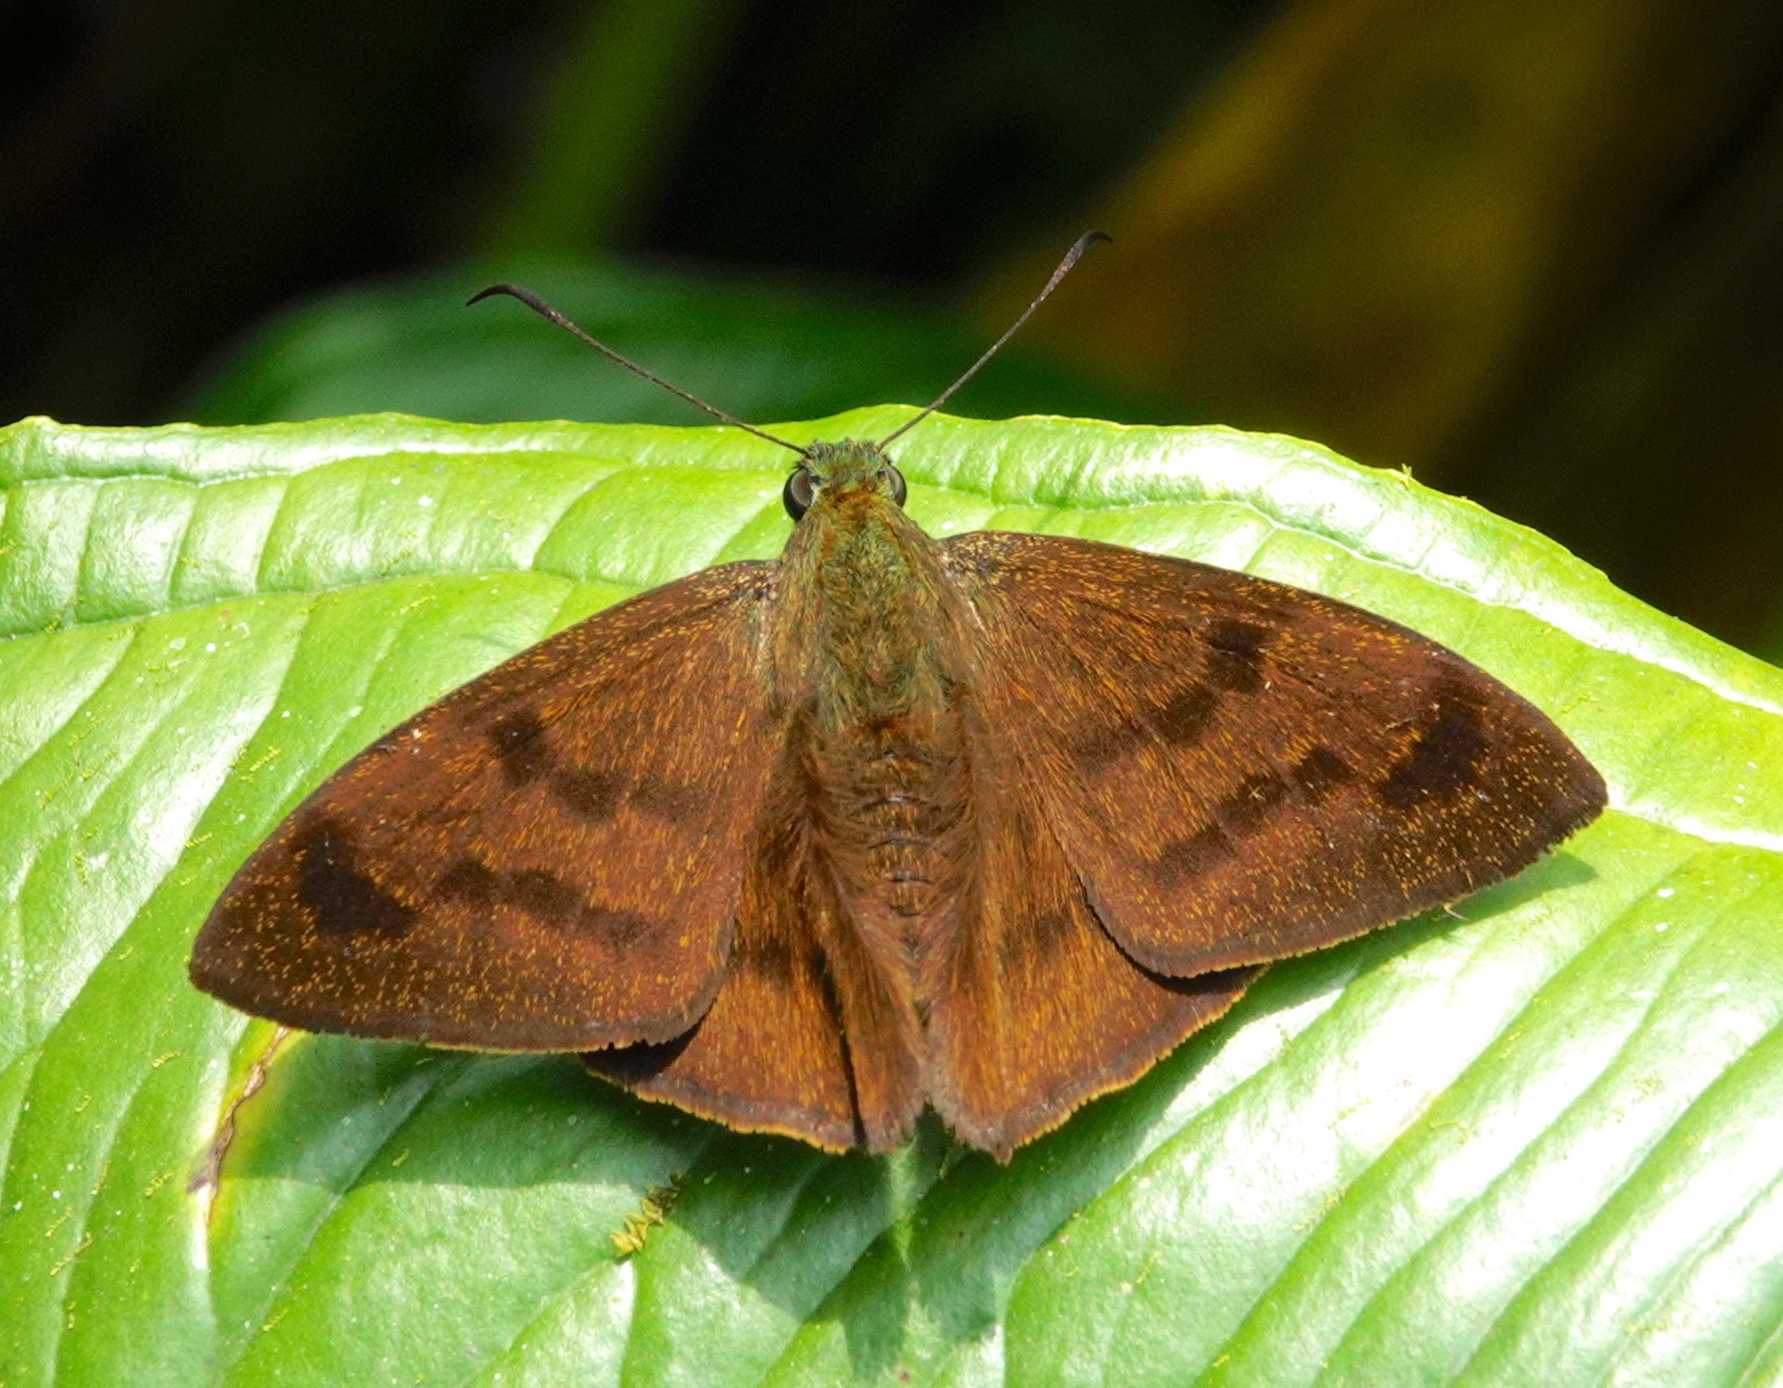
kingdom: Animalia
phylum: Arthropoda
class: Insecta
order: Lepidoptera
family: Hesperiidae
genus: Astraptes
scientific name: Astraptes galesus
